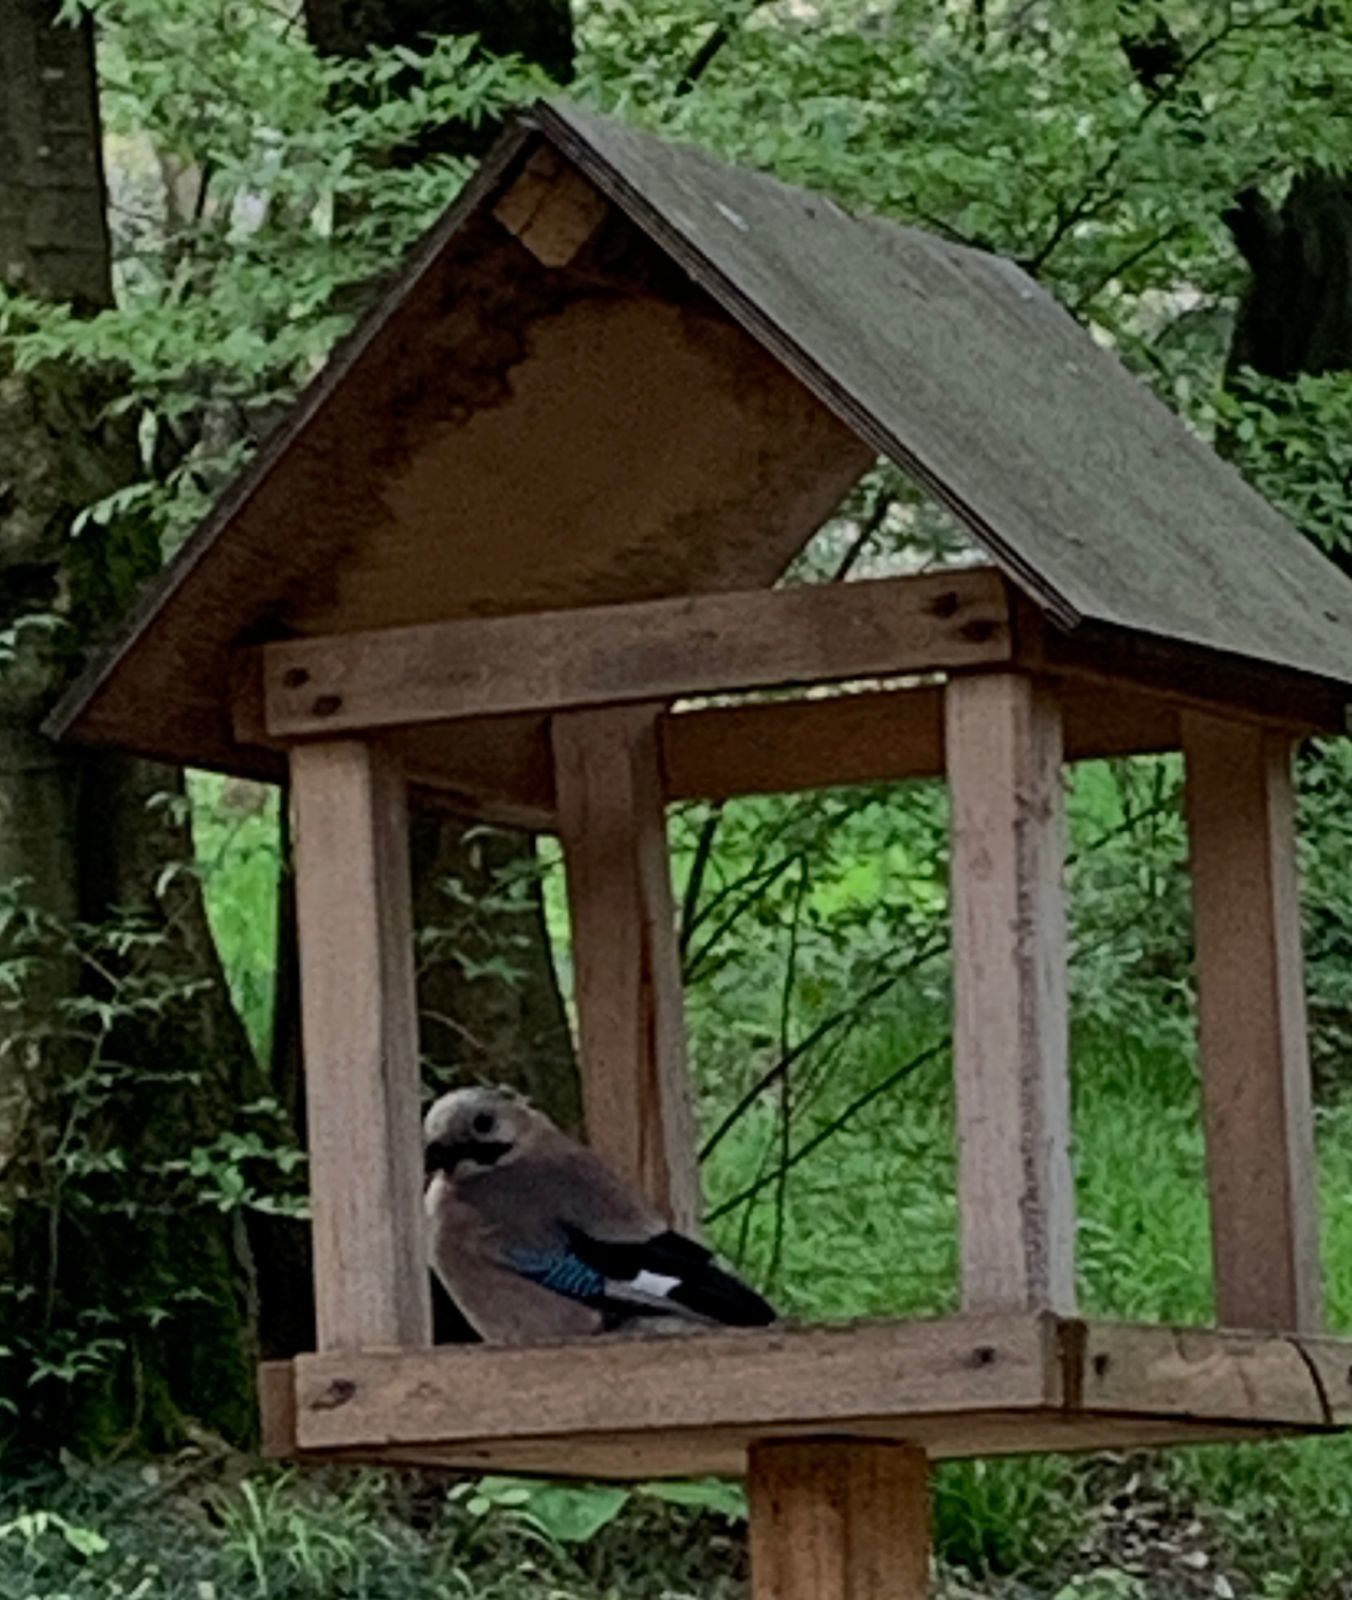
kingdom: Animalia
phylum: Chordata
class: Aves
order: Passeriformes
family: Corvidae
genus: Garrulus
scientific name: Garrulus glandarius
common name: Eurasian jay
